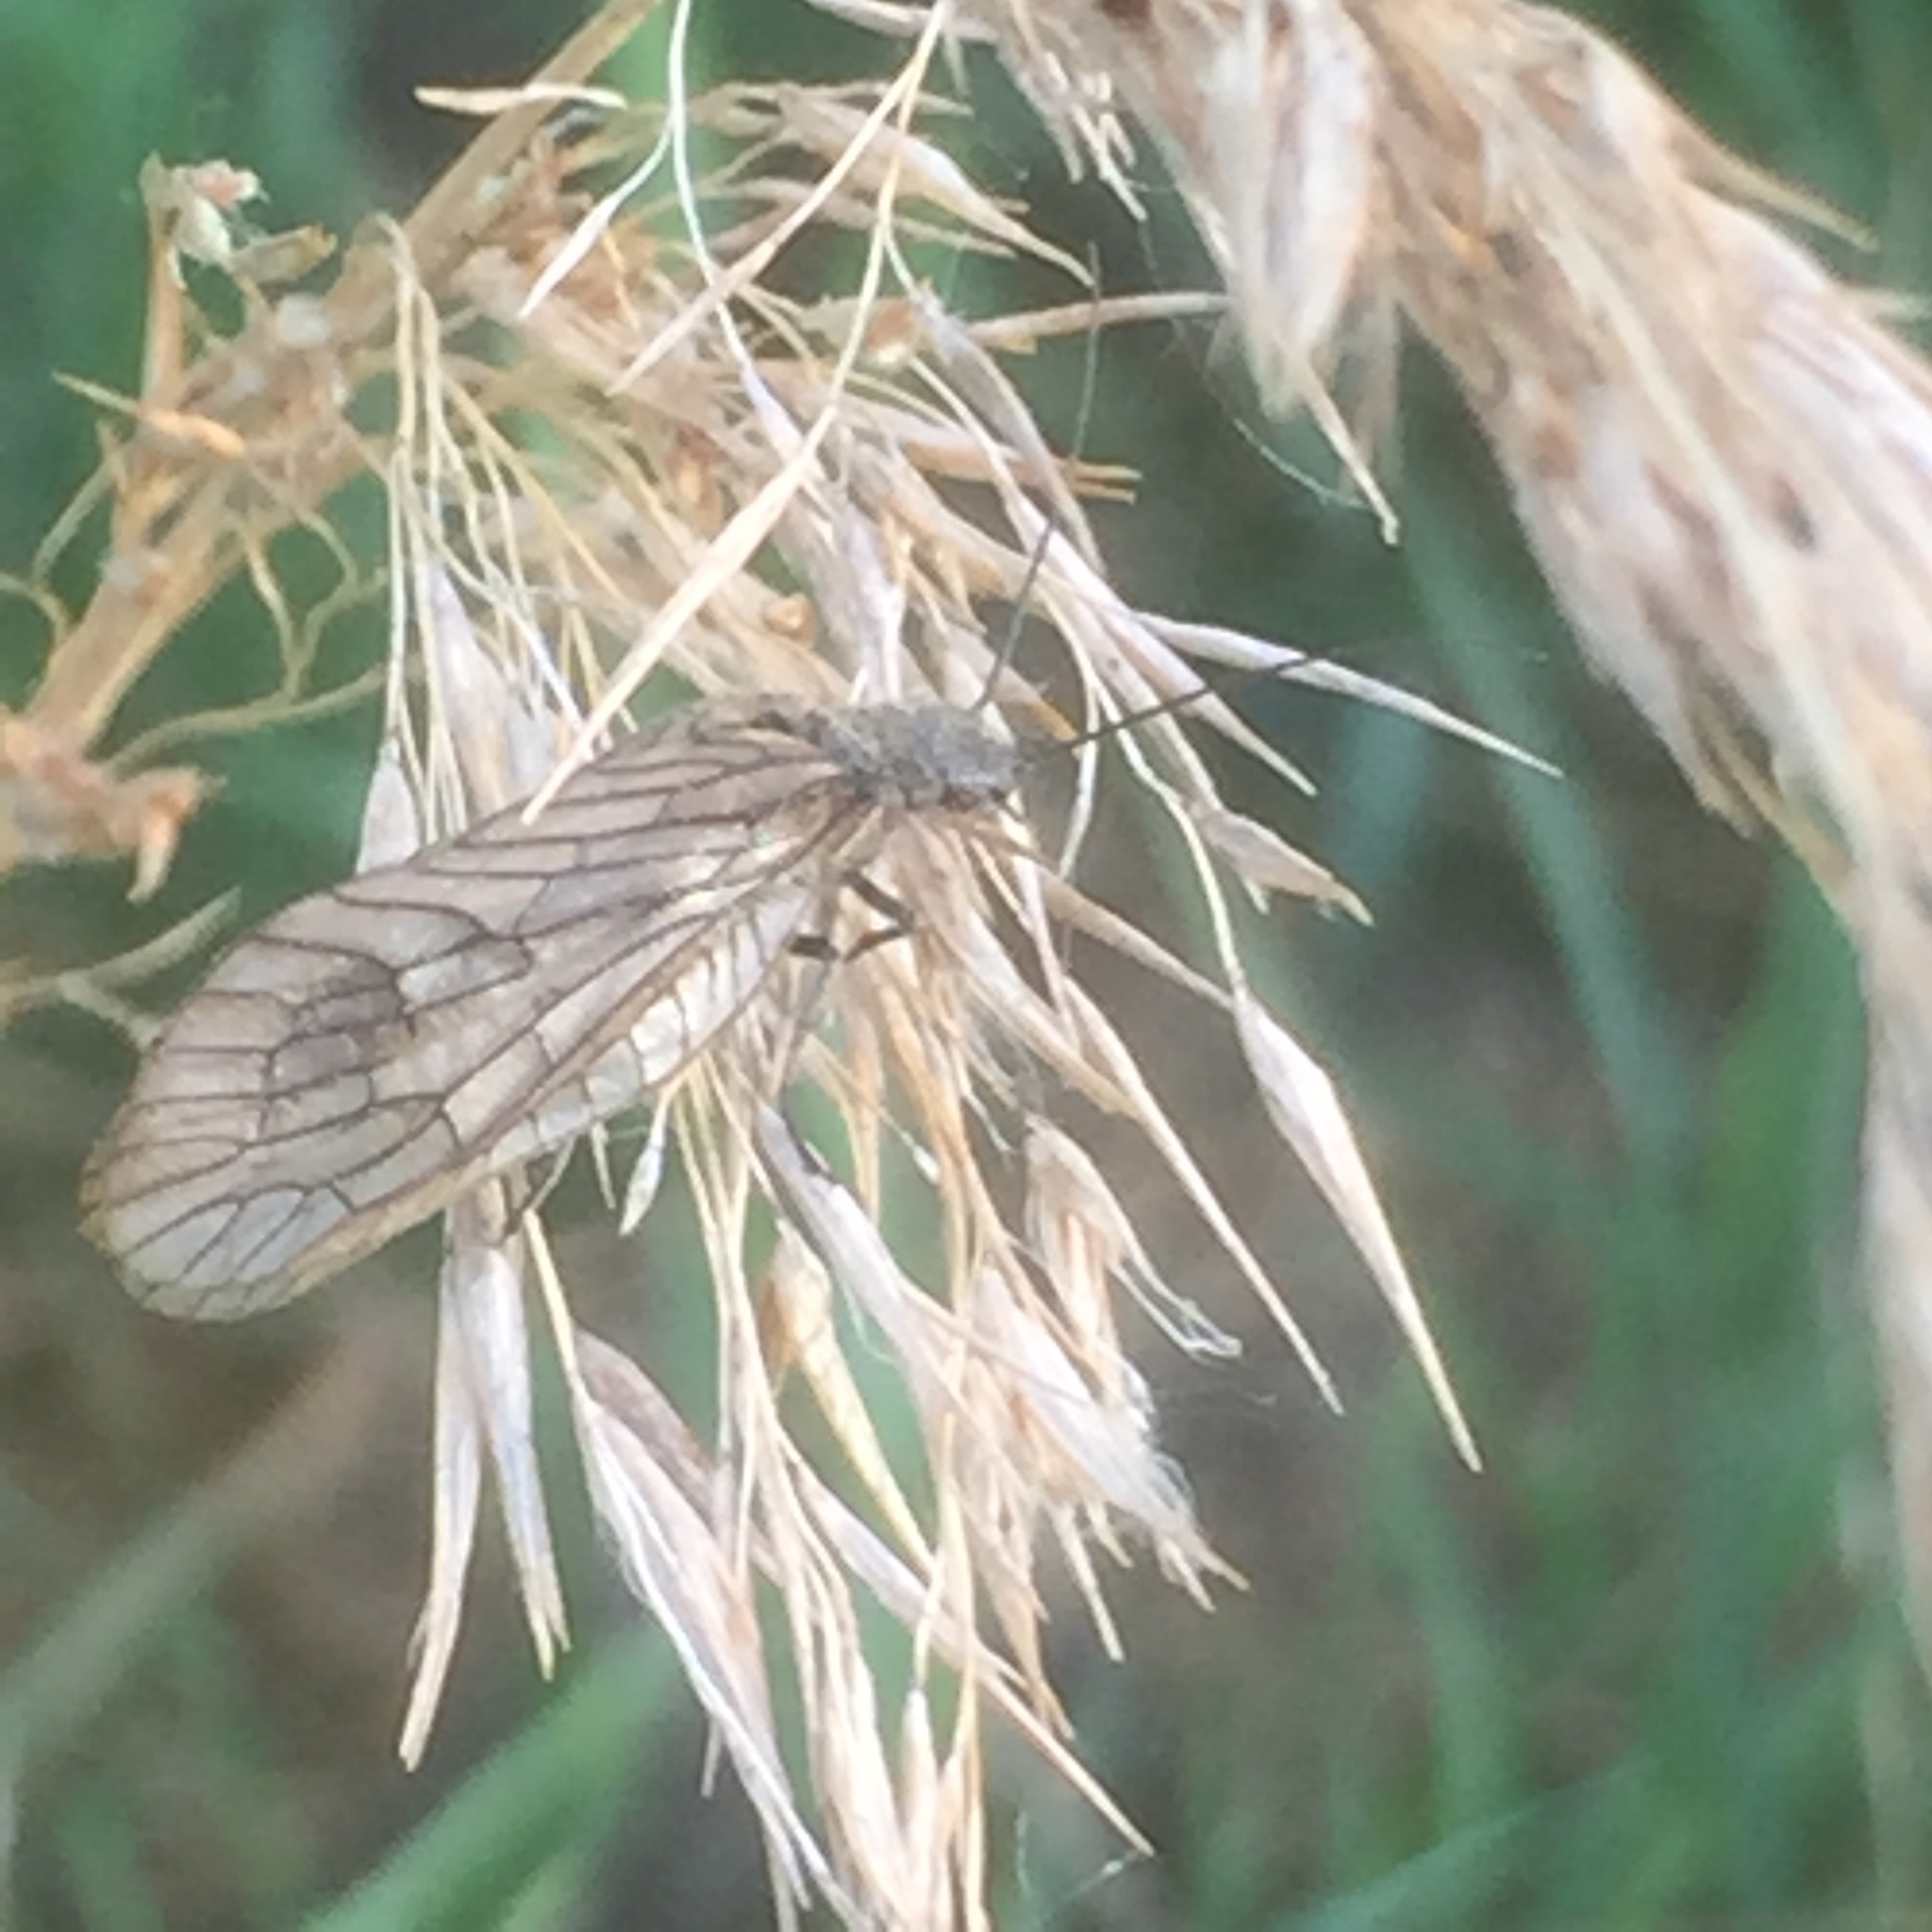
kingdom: Animalia
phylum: Arthropoda
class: Insecta
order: Megaloptera
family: Sialidae
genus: Sialis
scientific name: Sialis
